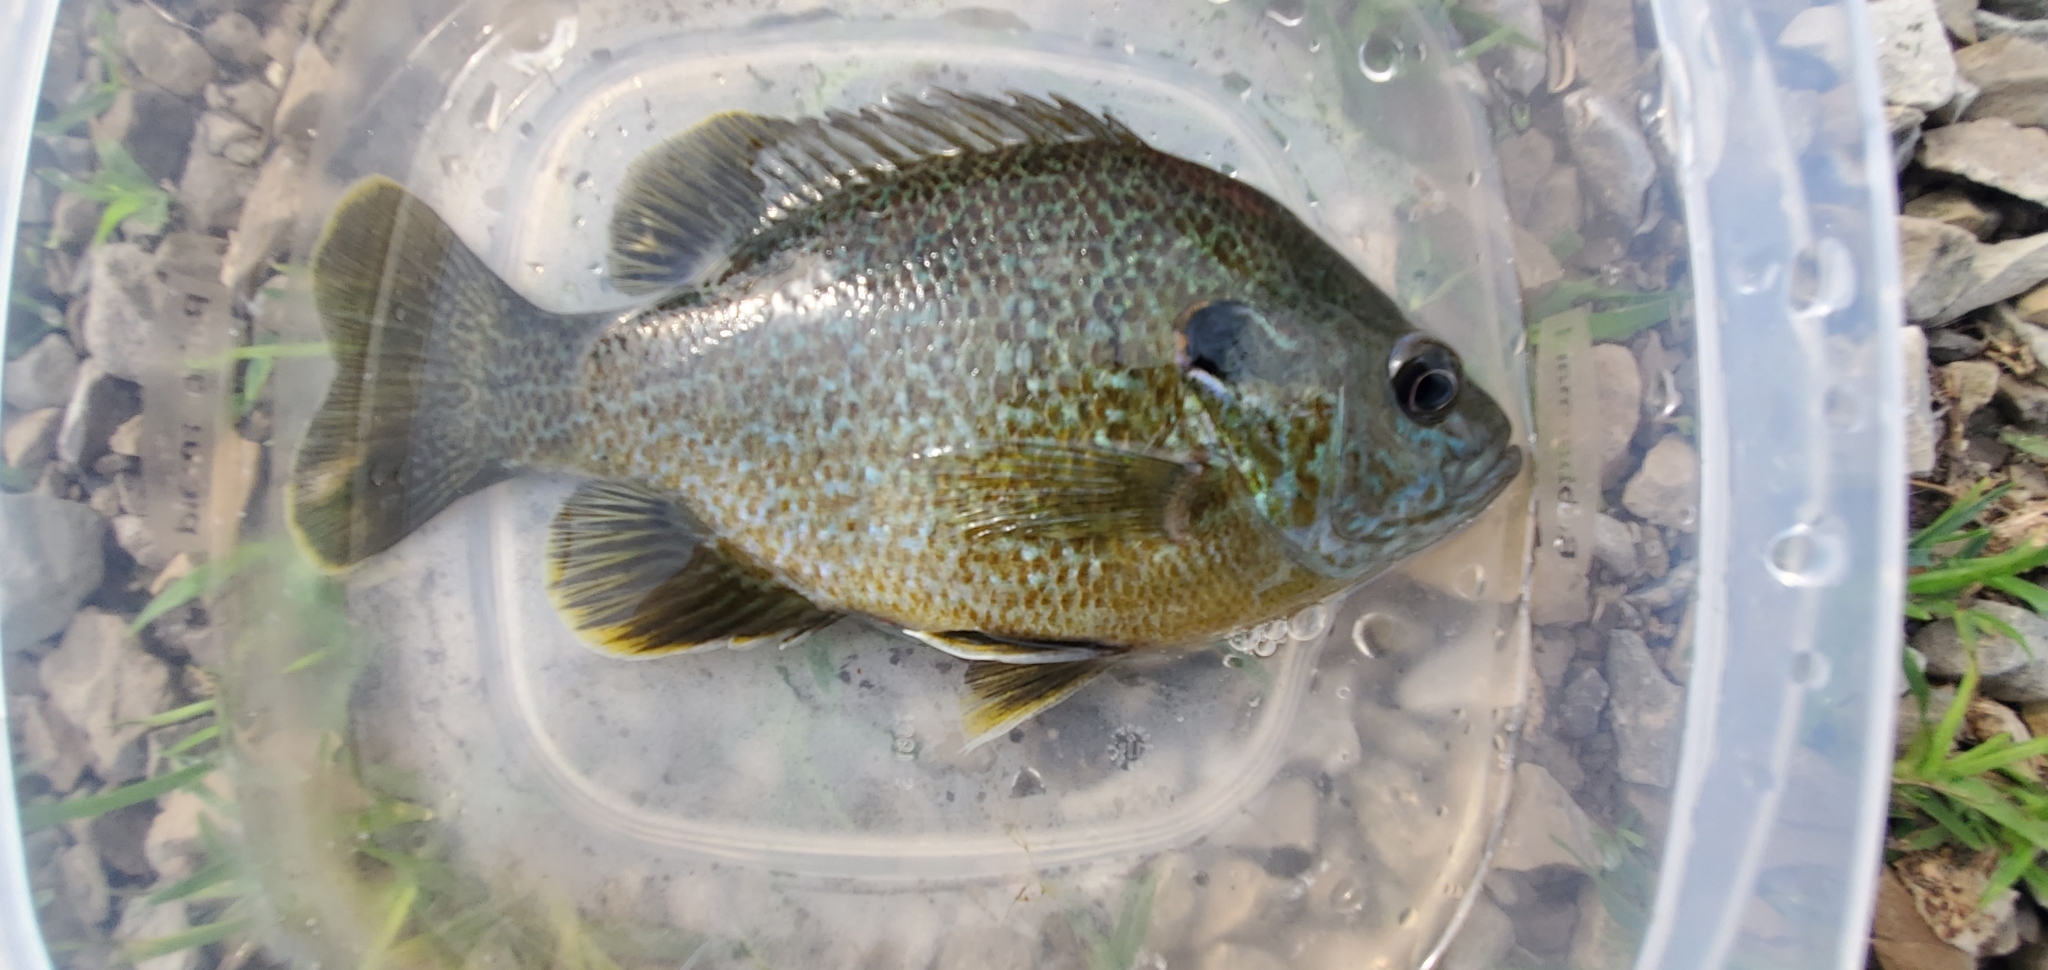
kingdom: Animalia
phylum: Chordata
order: Perciformes
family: Centrarchidae
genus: Lepomis
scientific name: Lepomis
